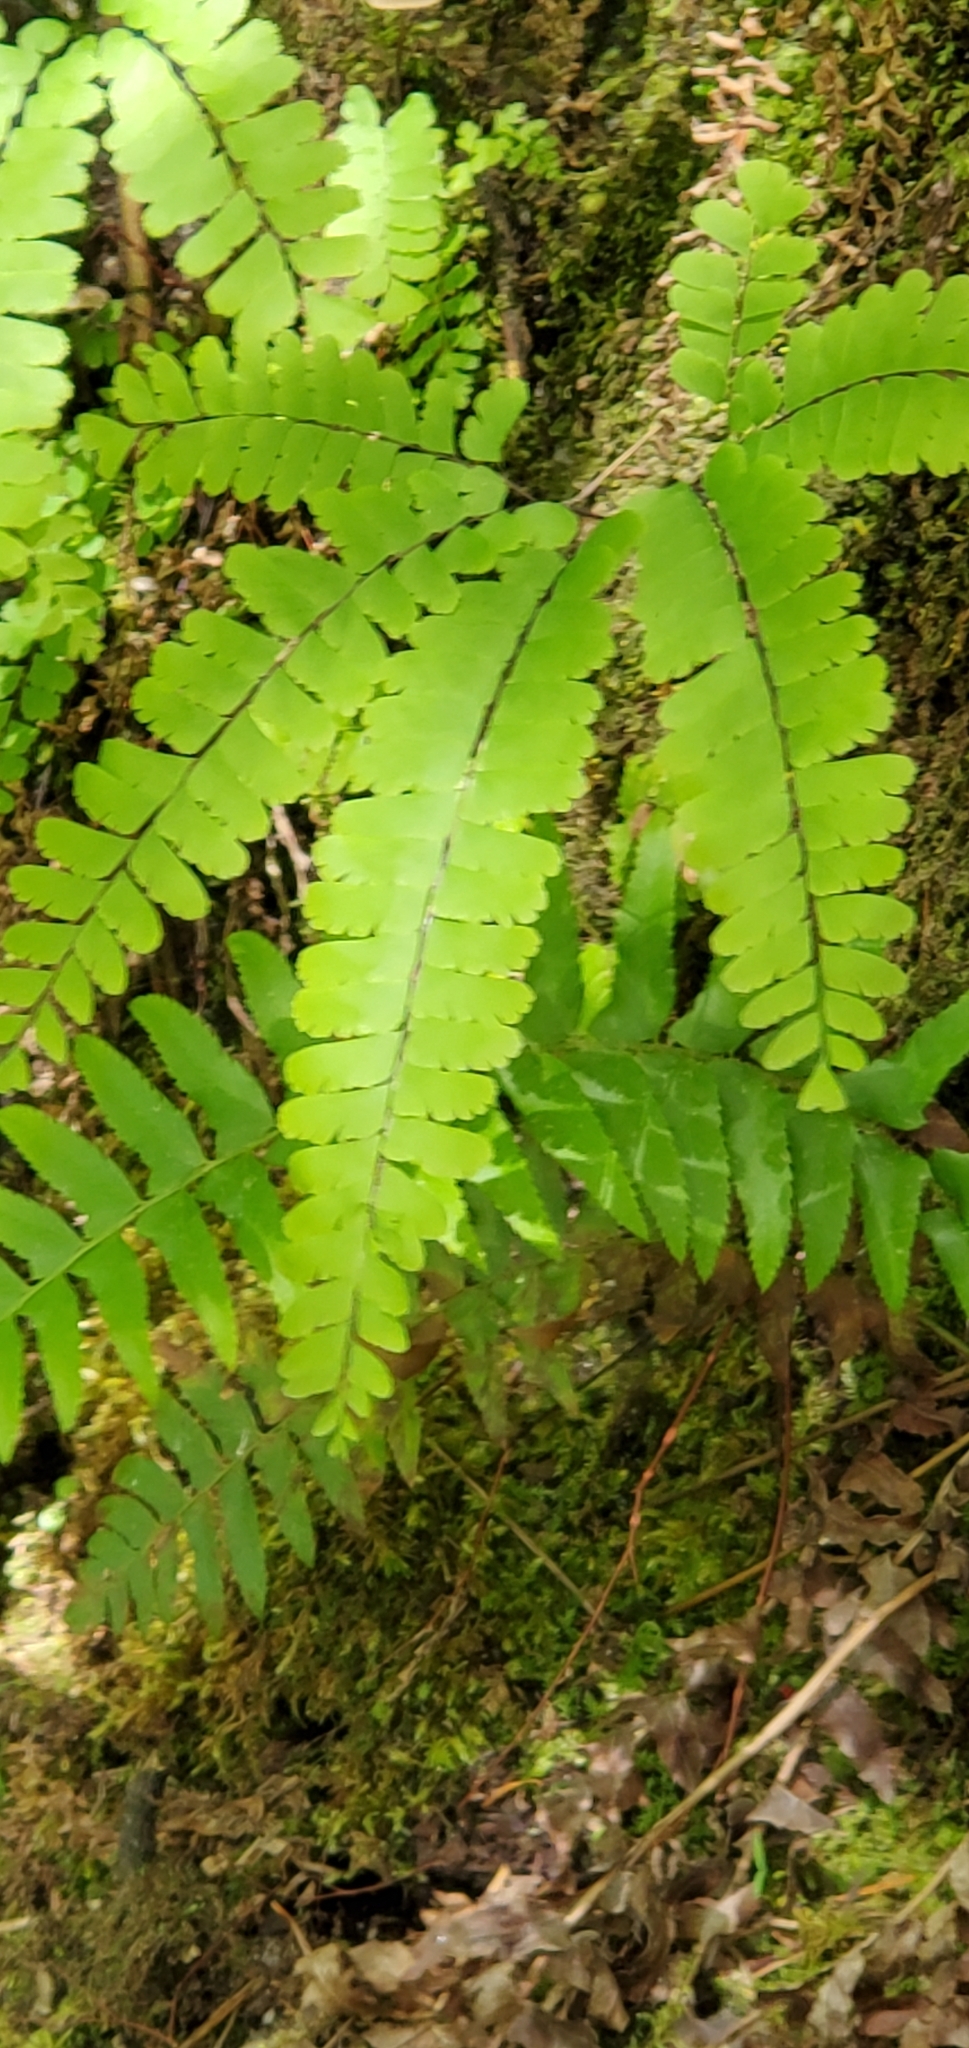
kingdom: Plantae
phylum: Tracheophyta
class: Polypodiopsida
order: Polypodiales
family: Pteridaceae
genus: Adiantum
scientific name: Adiantum aleuticum
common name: Aleutian maidenhair fern
